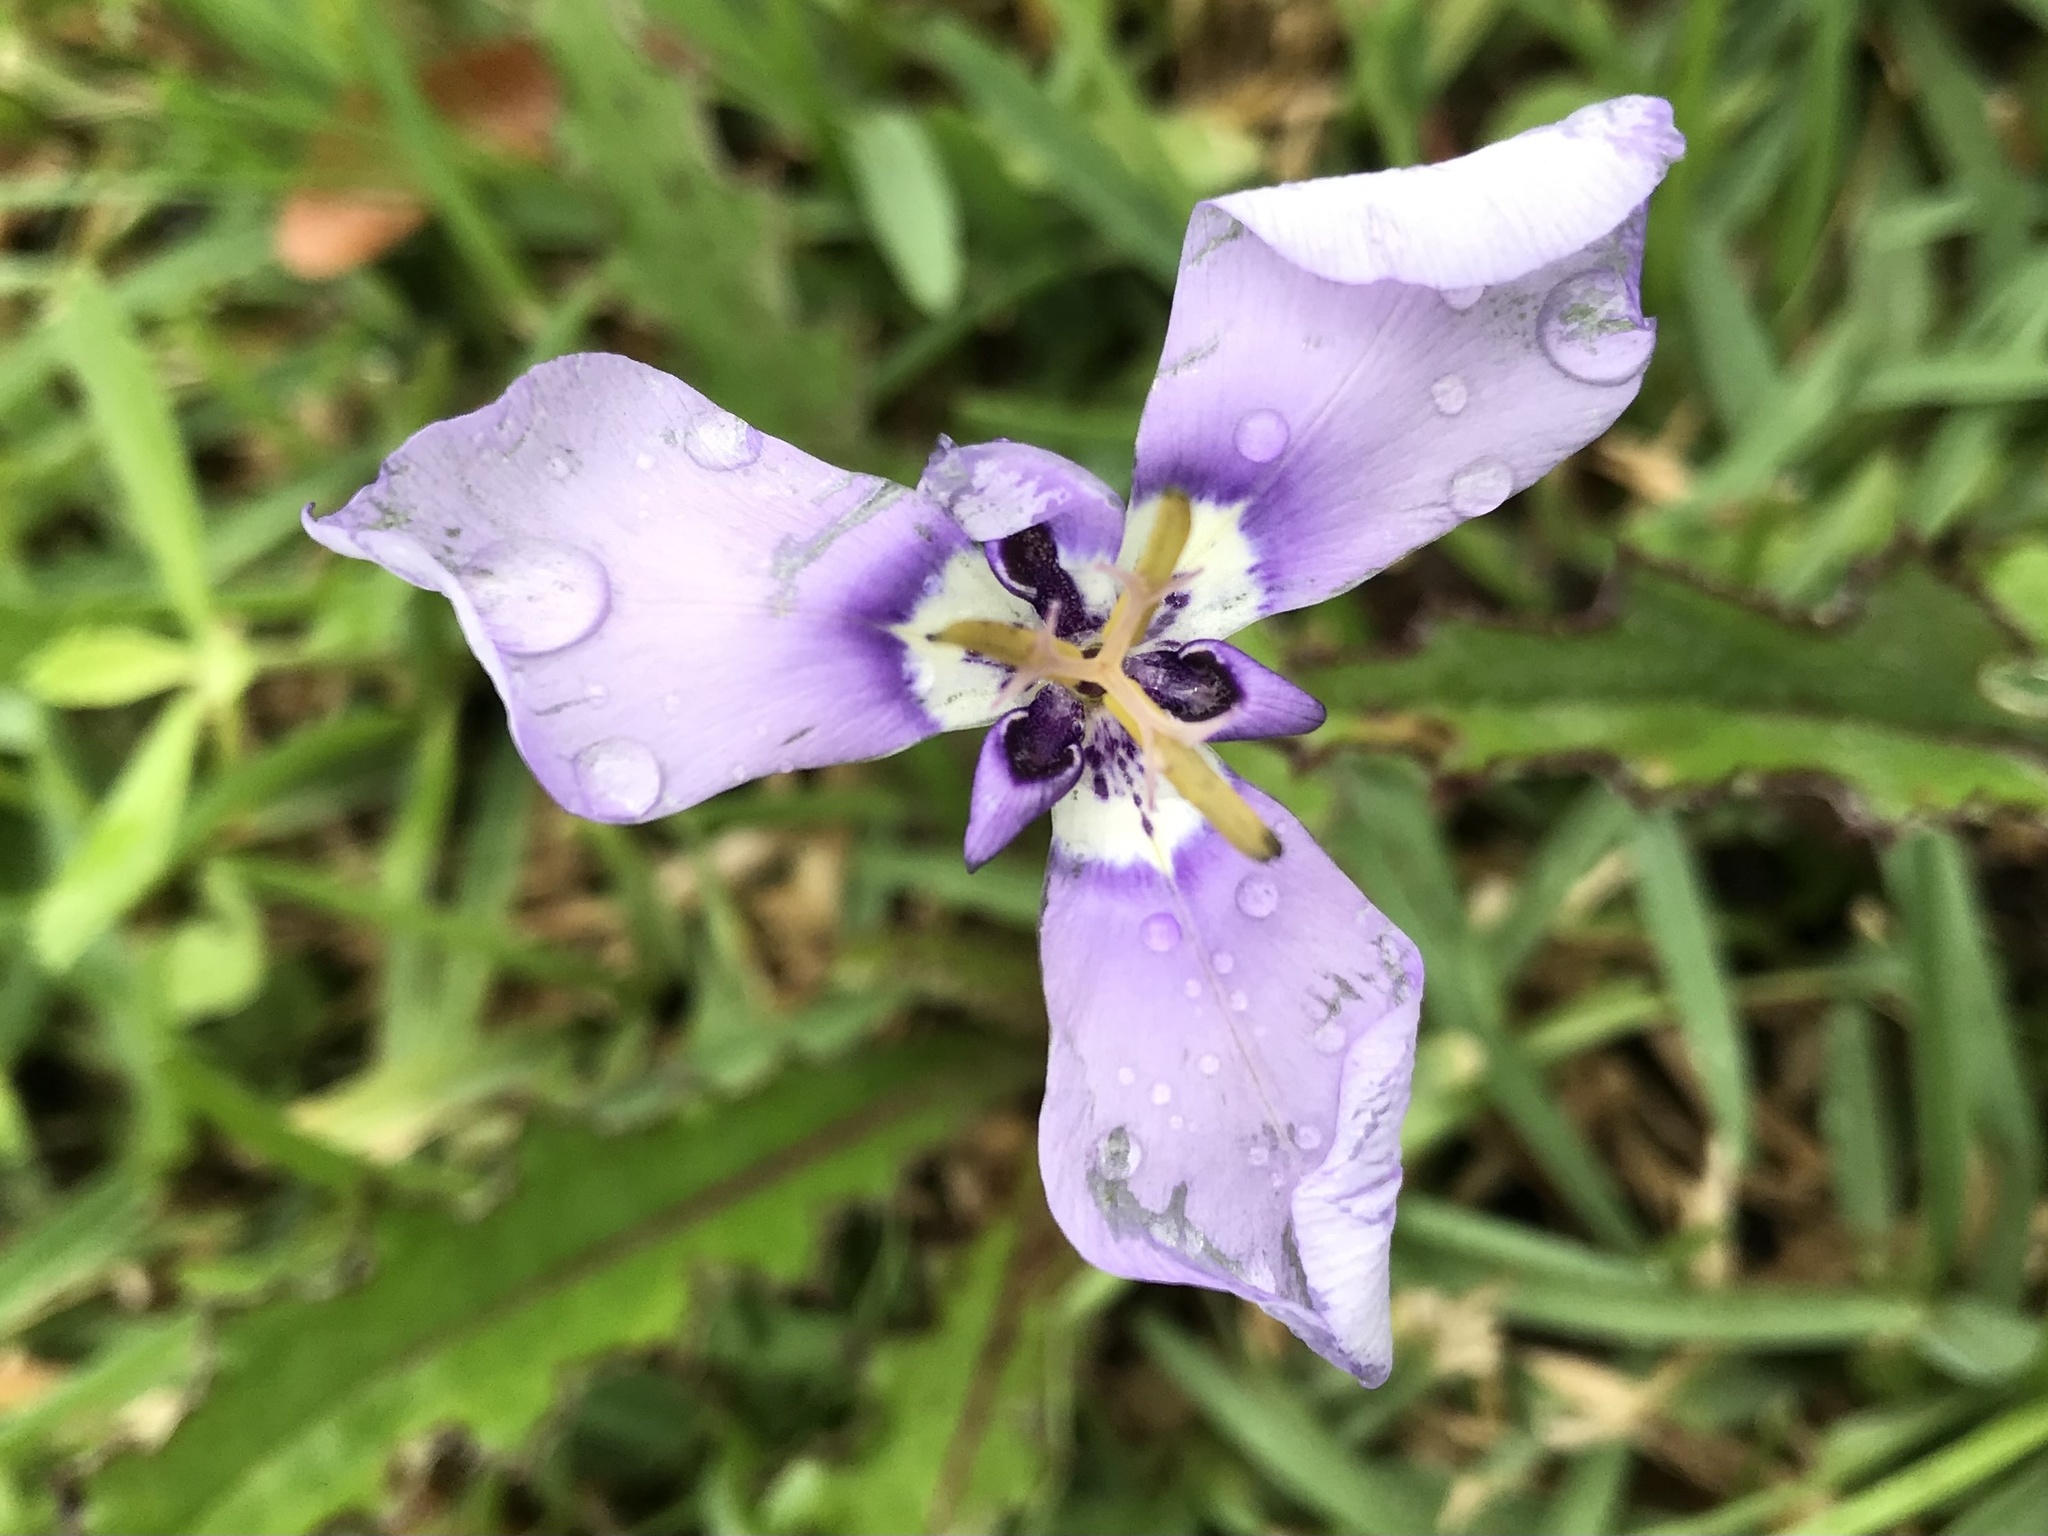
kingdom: Plantae
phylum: Tracheophyta
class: Liliopsida
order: Asparagales
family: Iridaceae
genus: Herbertia
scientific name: Herbertia lahue
